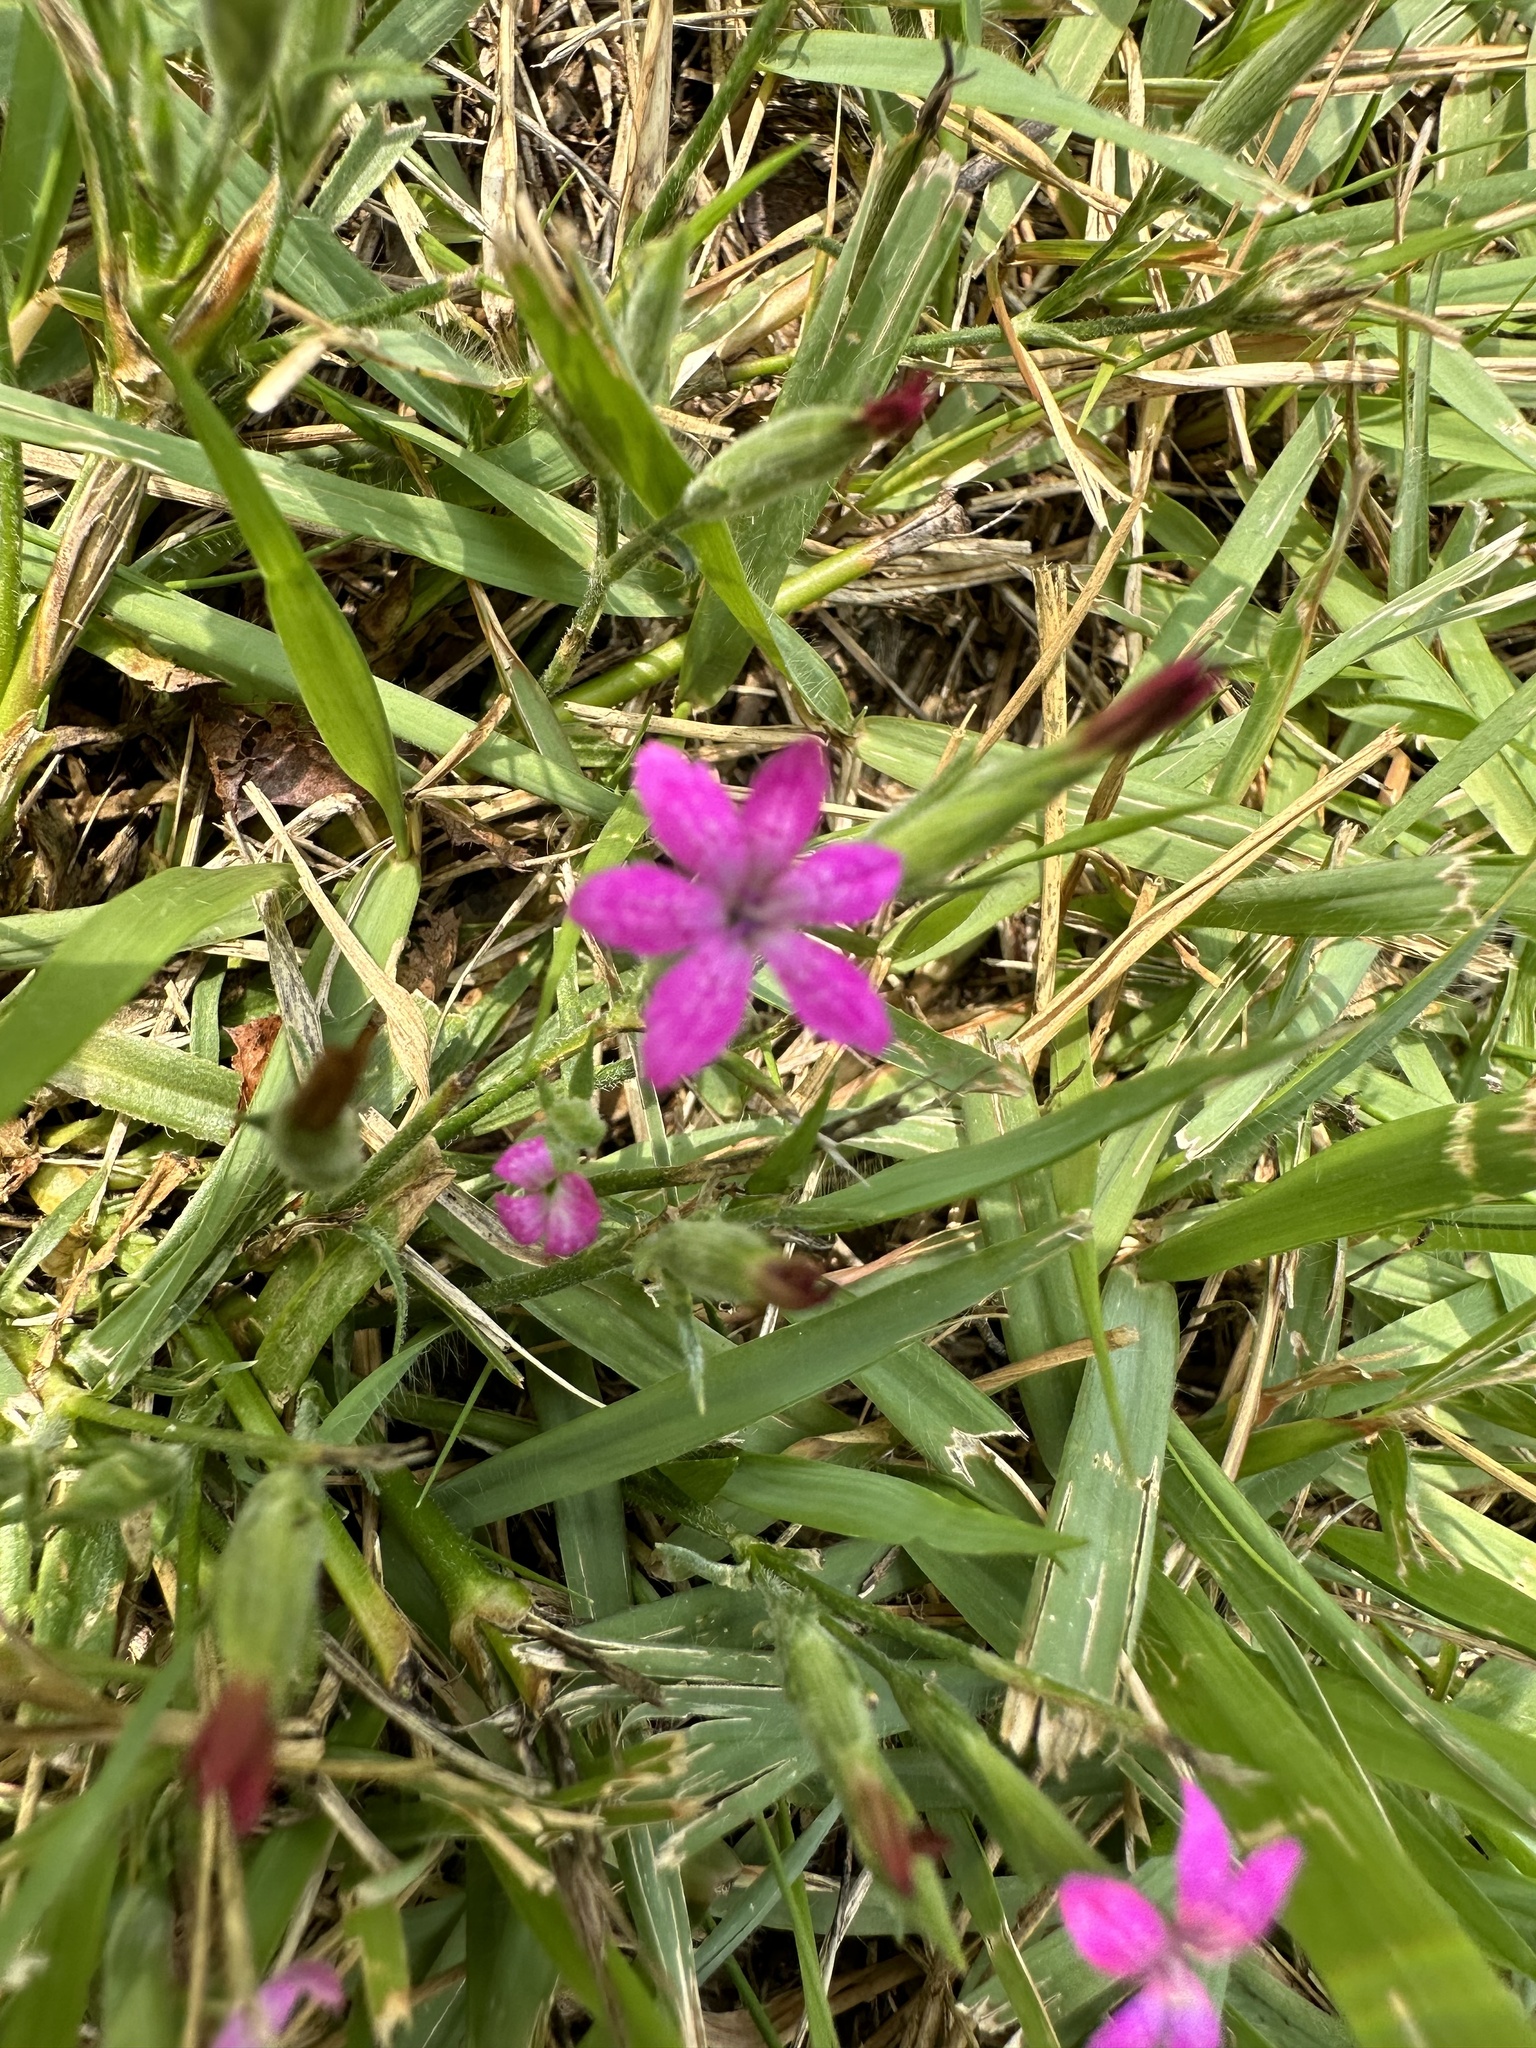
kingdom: Plantae
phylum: Tracheophyta
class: Magnoliopsida
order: Caryophyllales
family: Caryophyllaceae
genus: Dianthus
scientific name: Dianthus armeria
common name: Deptford pink
